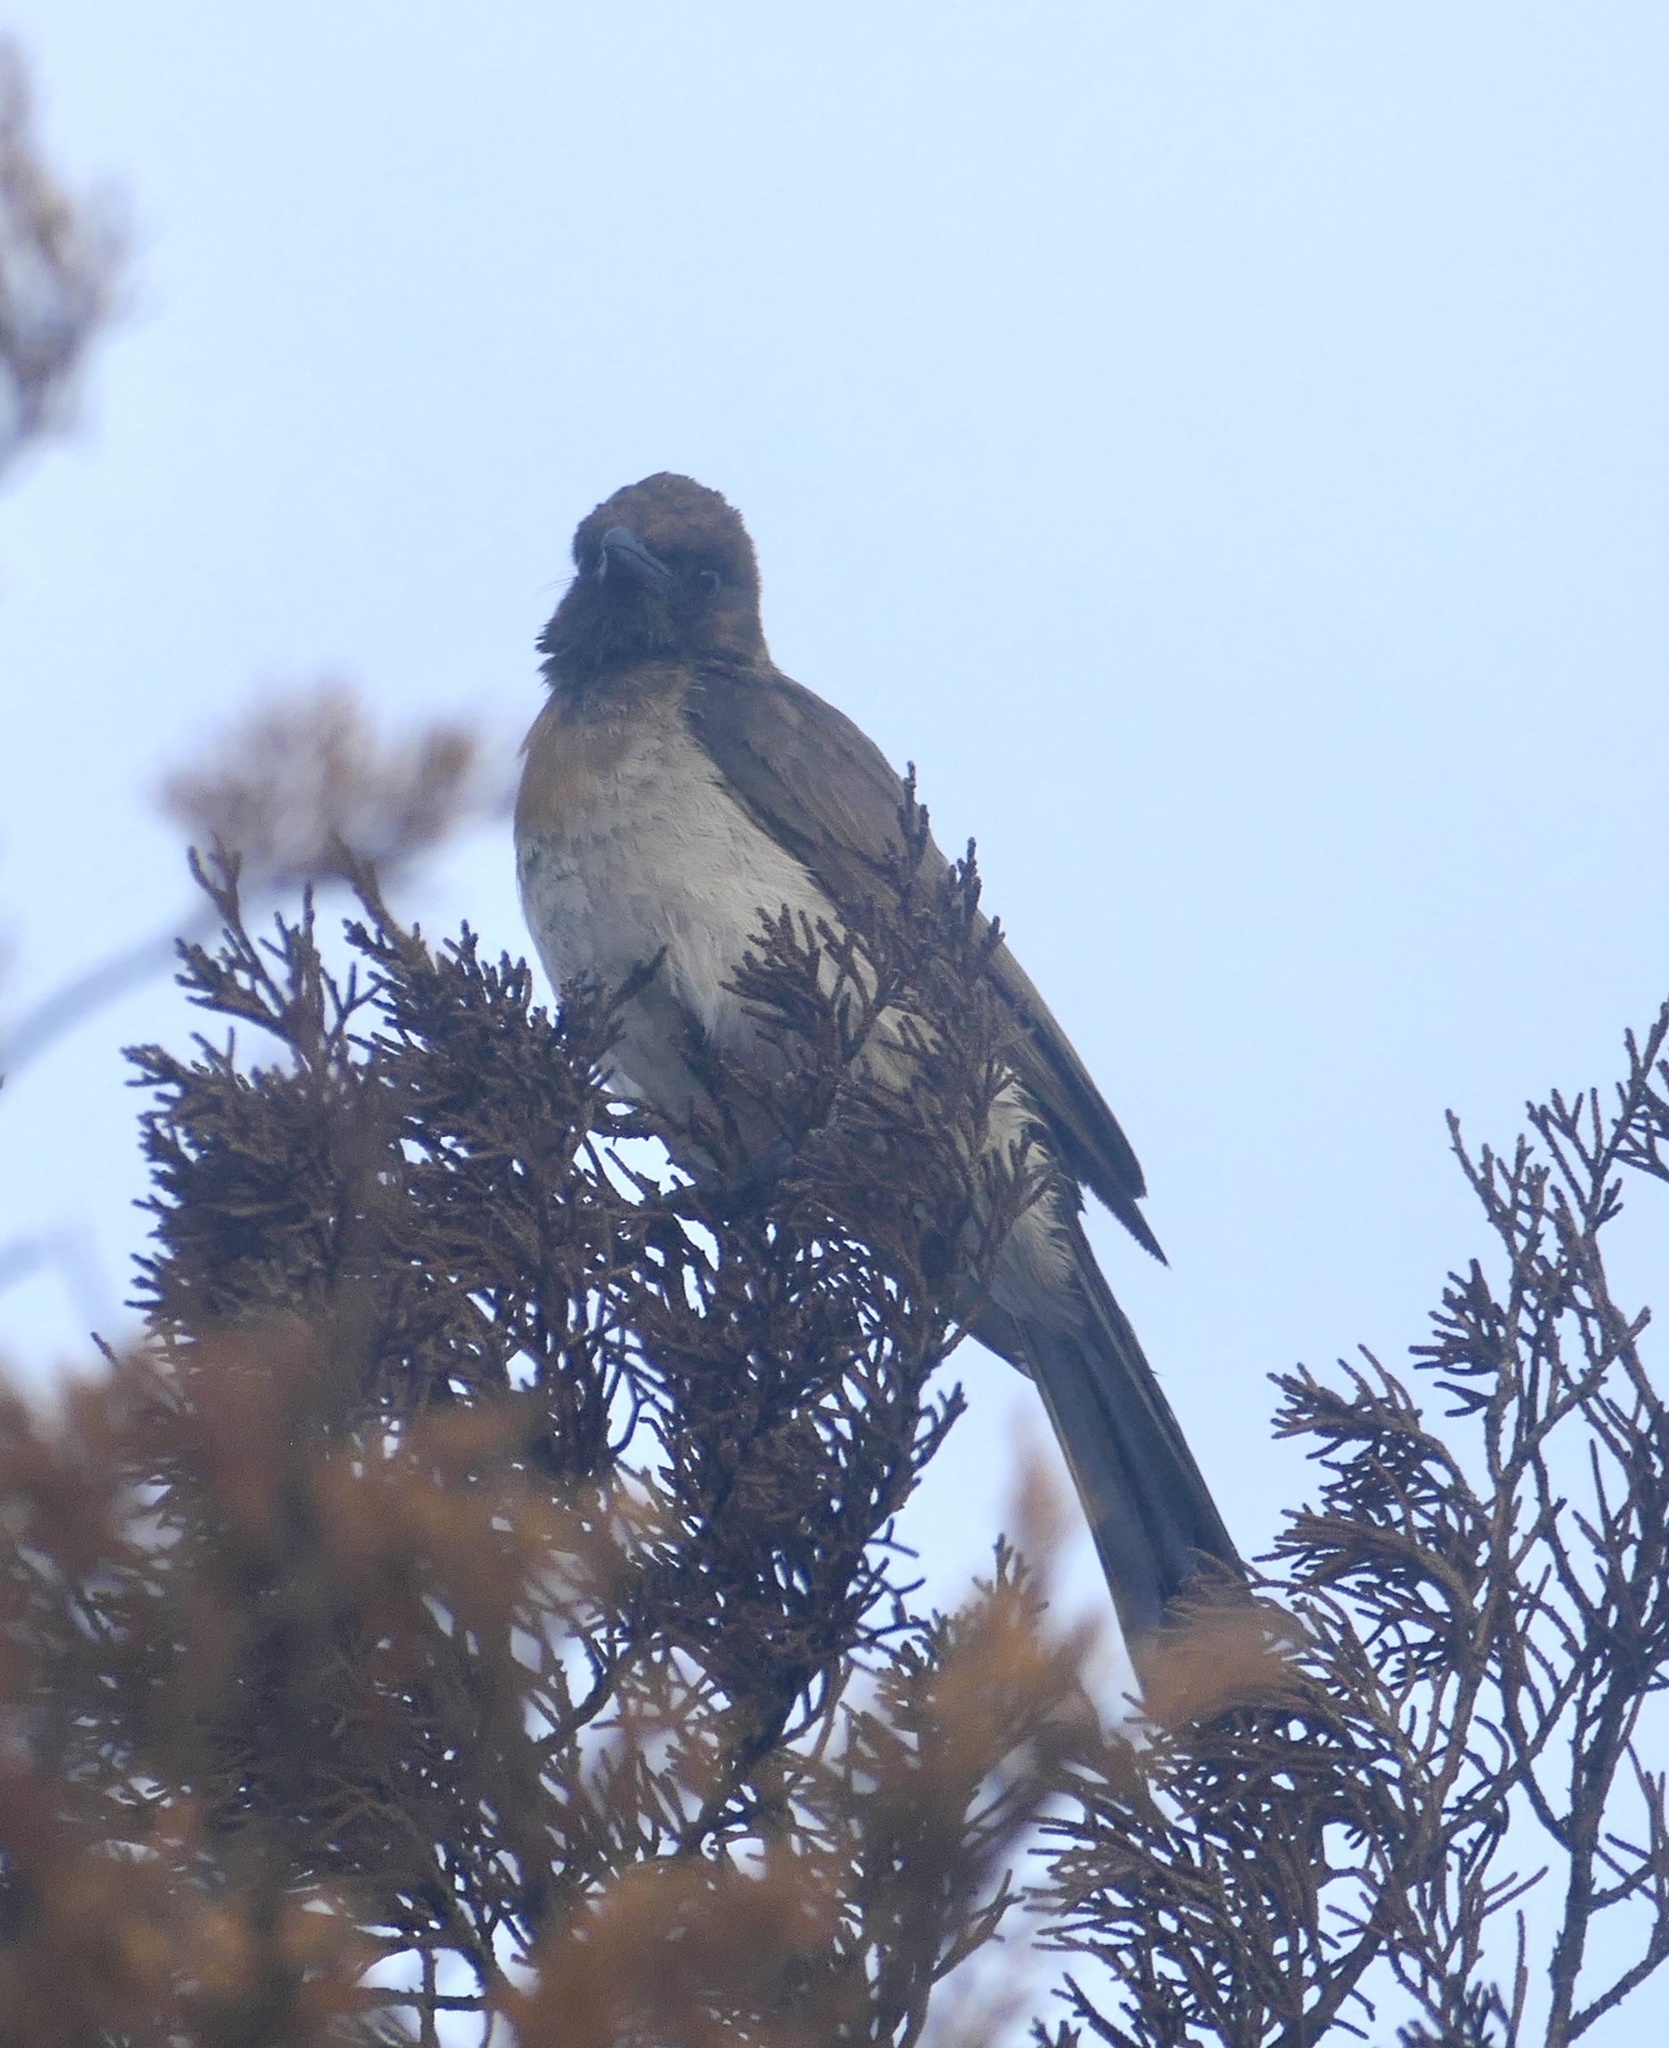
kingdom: Animalia
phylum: Chordata
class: Aves
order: Passeriformes
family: Pycnonotidae
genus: Pycnonotus
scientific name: Pycnonotus barbatus
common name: Common bulbul
